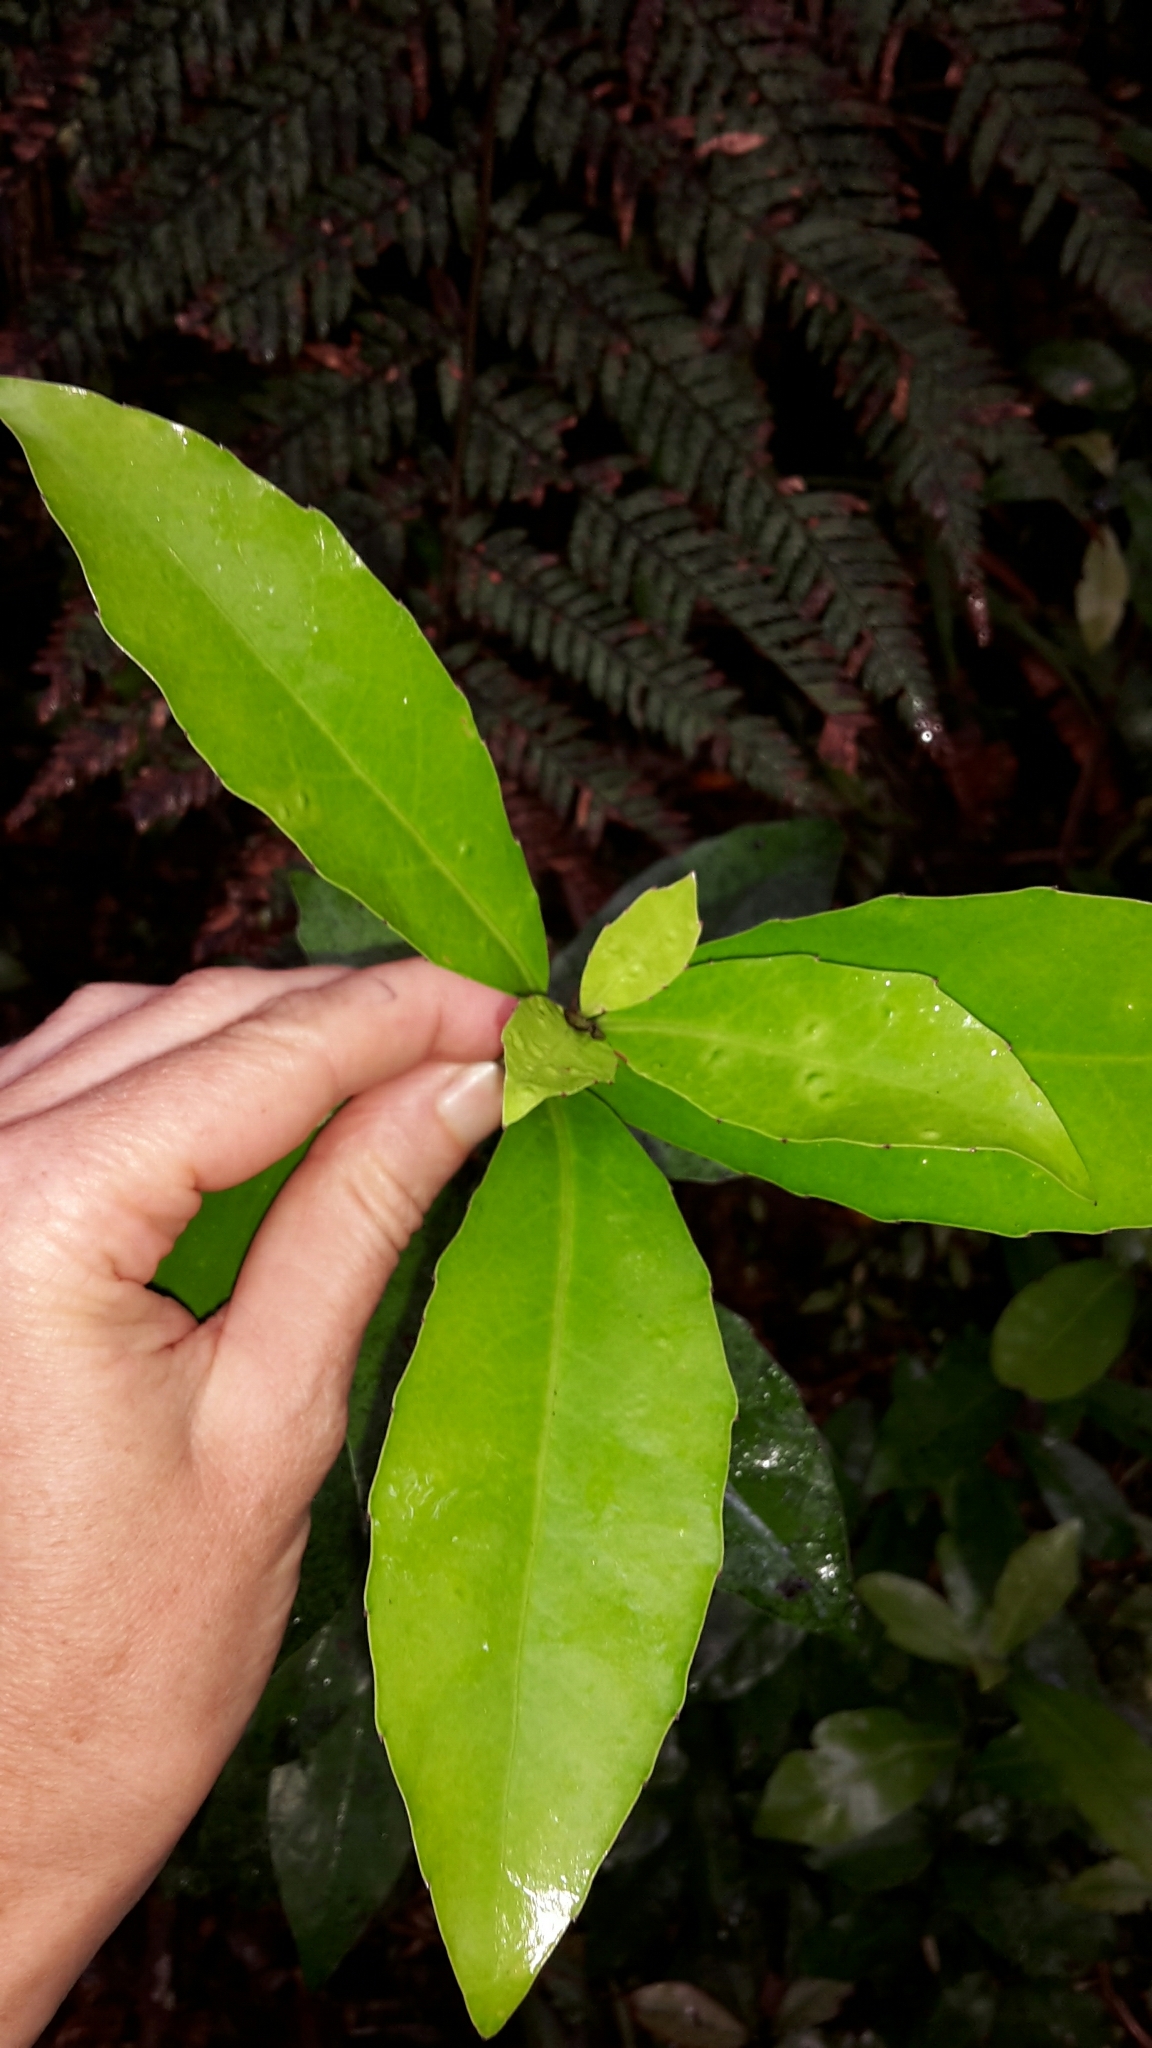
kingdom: Plantae
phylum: Tracheophyta
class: Magnoliopsida
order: Asterales
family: Alseuosmiaceae
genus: Alseuosmia
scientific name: Alseuosmia turneri
